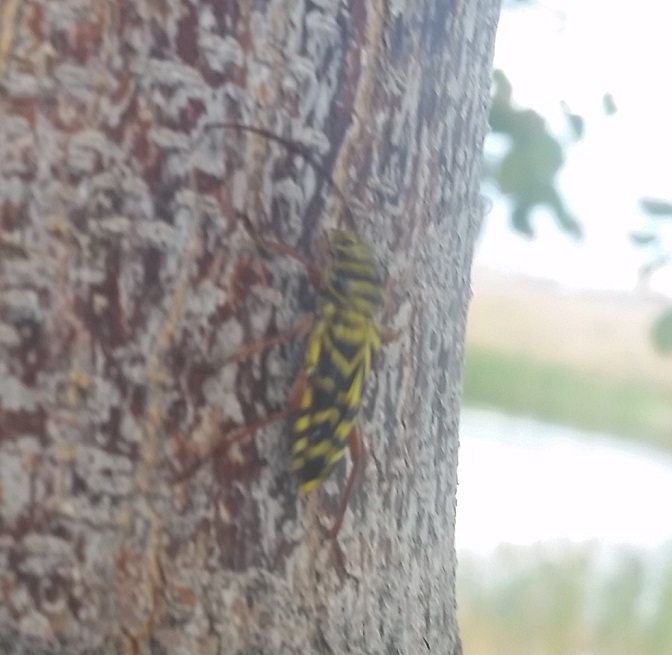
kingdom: Animalia
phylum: Arthropoda
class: Insecta
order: Coleoptera
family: Cerambycidae
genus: Megacyllene
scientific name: Megacyllene robiniae
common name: Locust borer
